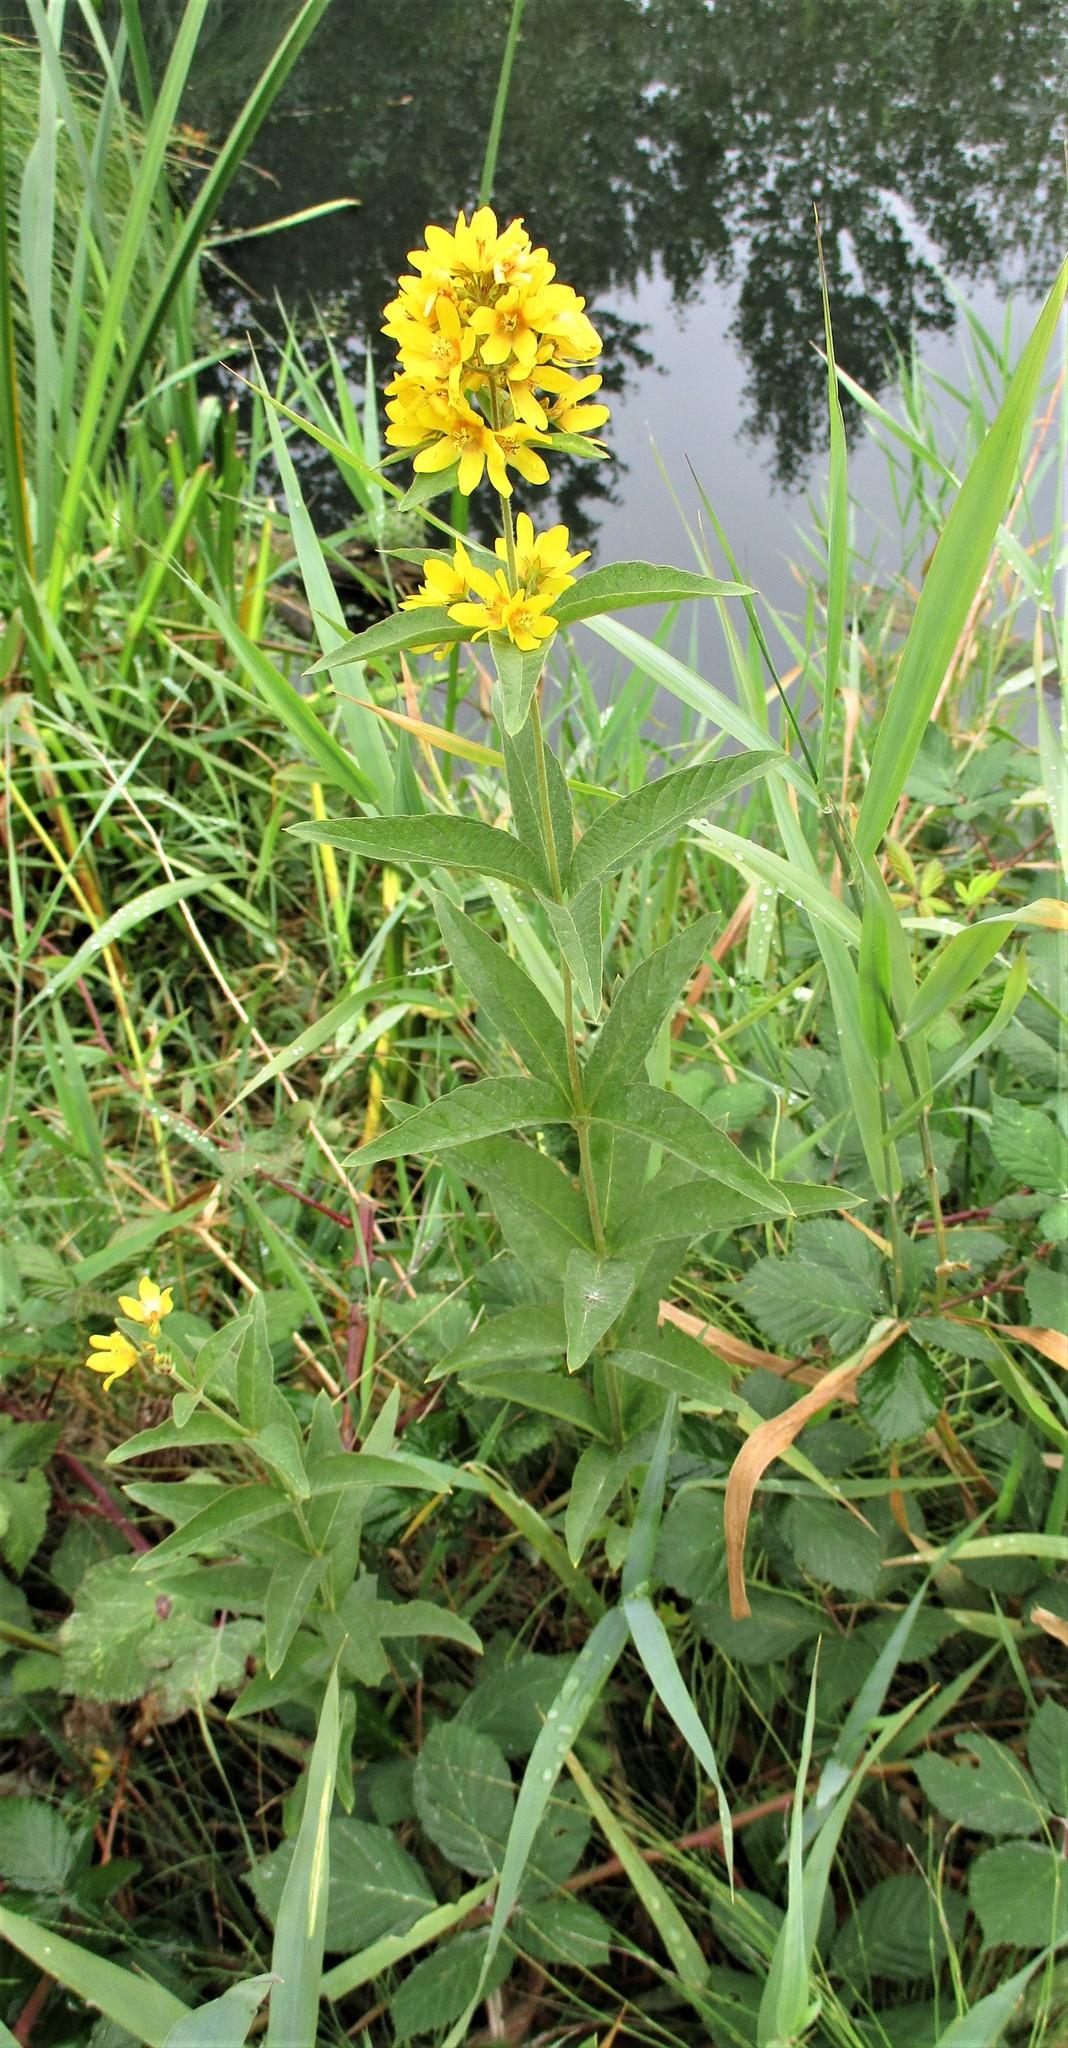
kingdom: Plantae
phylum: Tracheophyta
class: Magnoliopsida
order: Ericales
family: Primulaceae
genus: Lysimachia
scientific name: Lysimachia vulgaris
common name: Yellow loosestrife
